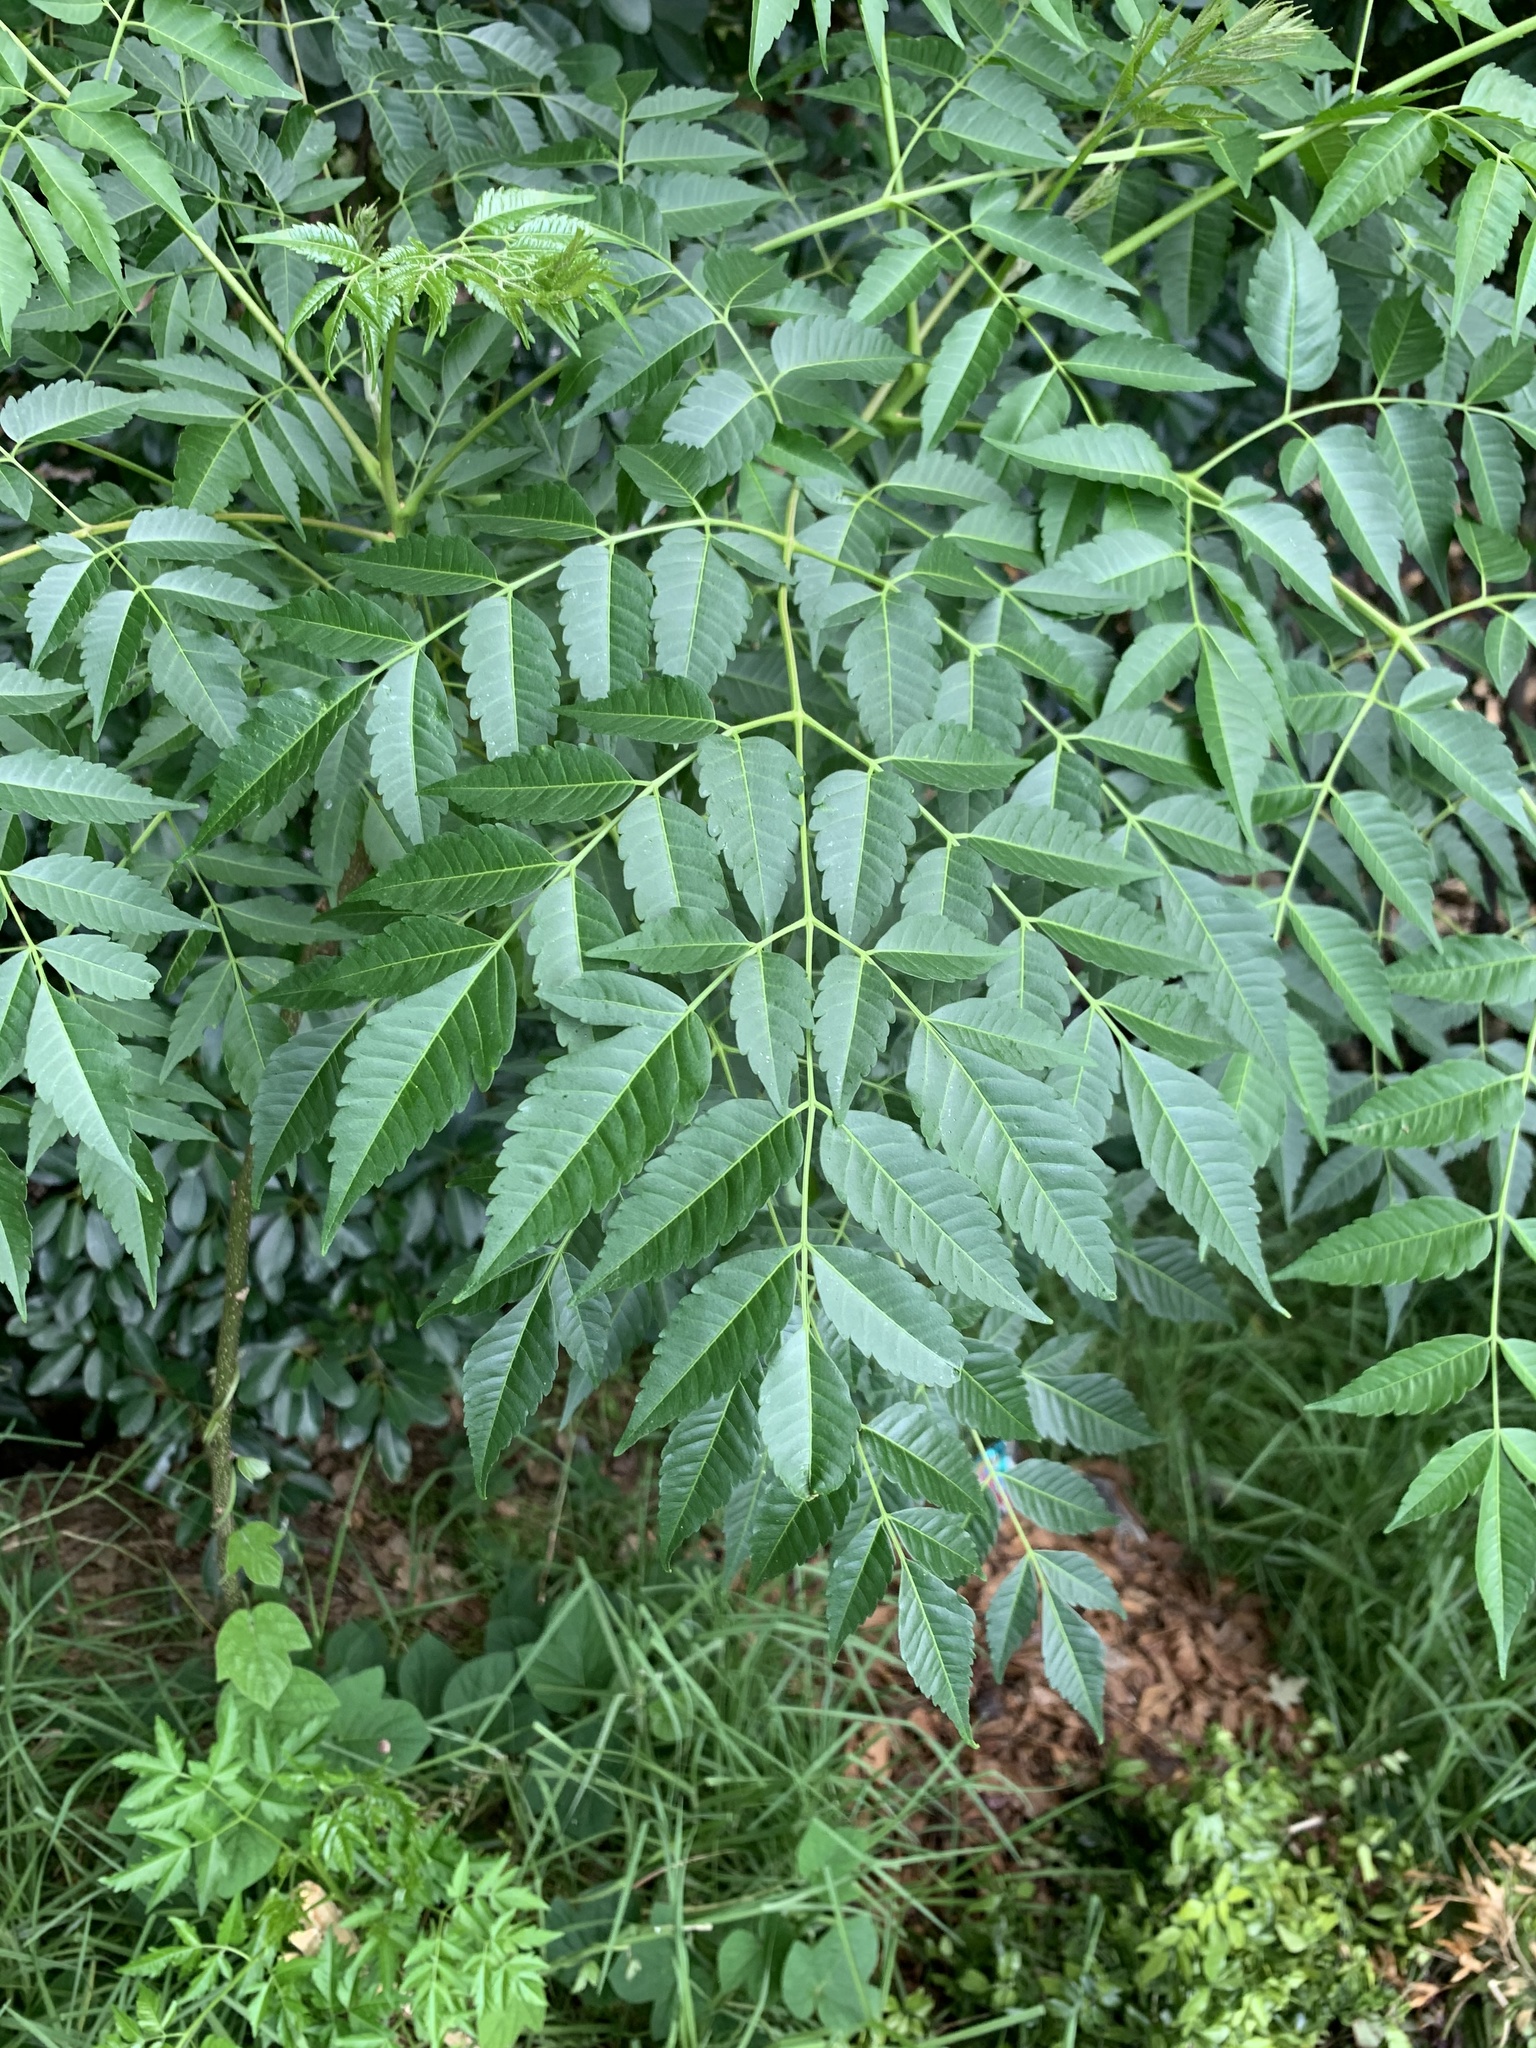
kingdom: Plantae
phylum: Tracheophyta
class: Magnoliopsida
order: Sapindales
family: Meliaceae
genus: Melia
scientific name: Melia azedarach
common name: Chinaberrytree
